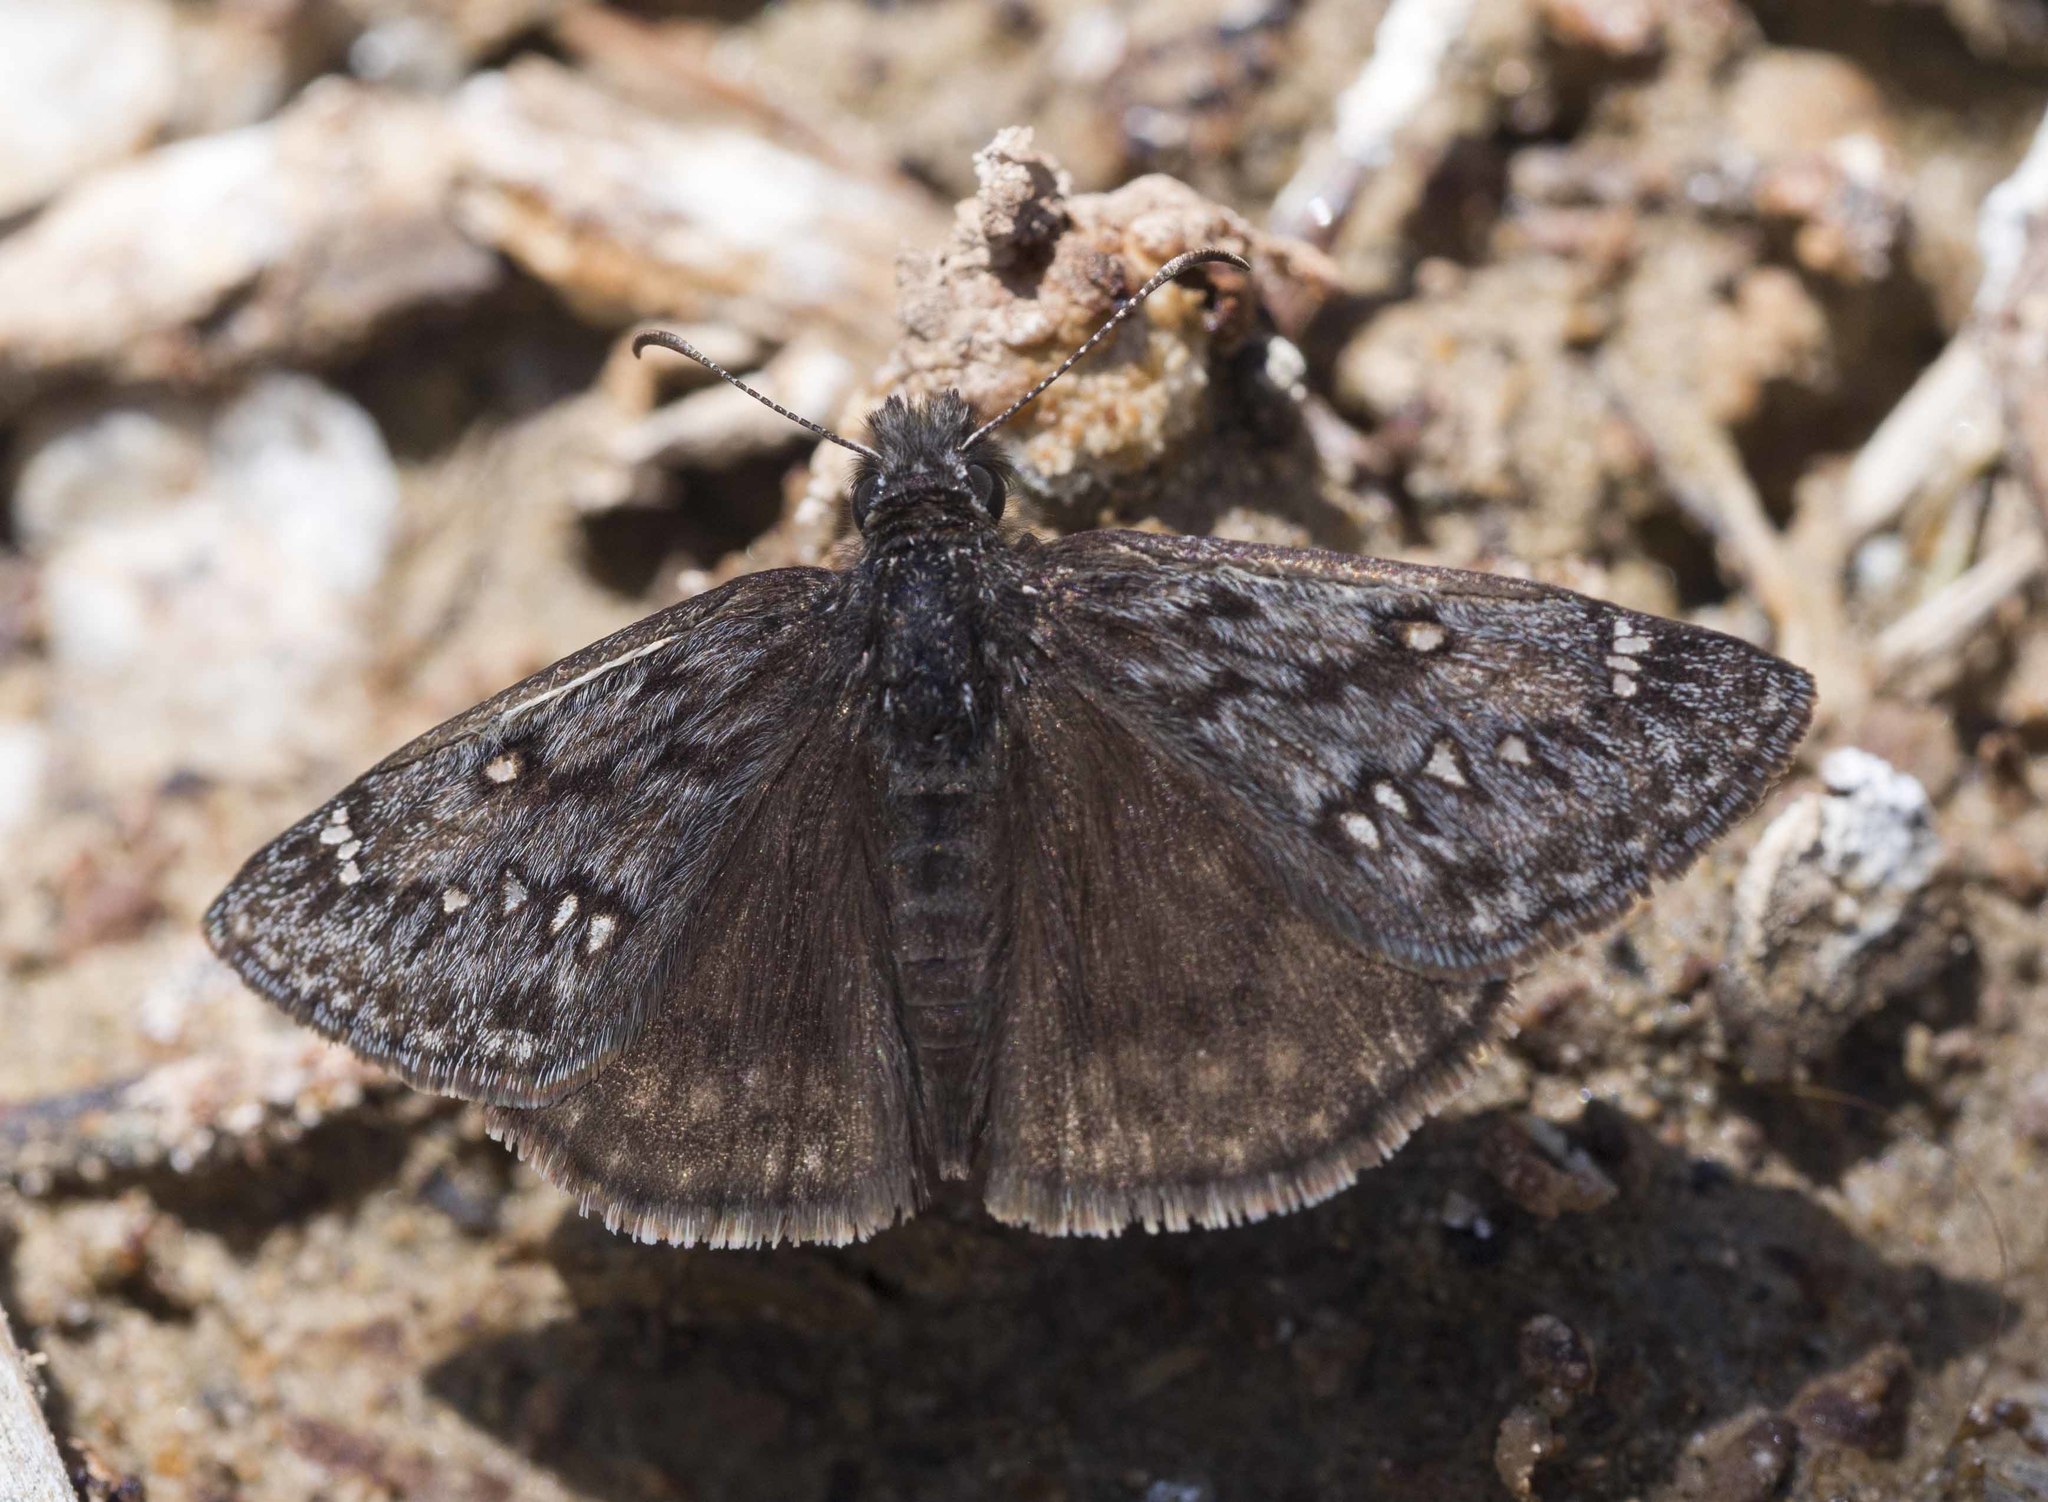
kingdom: Animalia
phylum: Arthropoda
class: Insecta
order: Lepidoptera
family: Hesperiidae
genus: Erynnis
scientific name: Erynnis telemachus
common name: Rocky mountain duskywing
